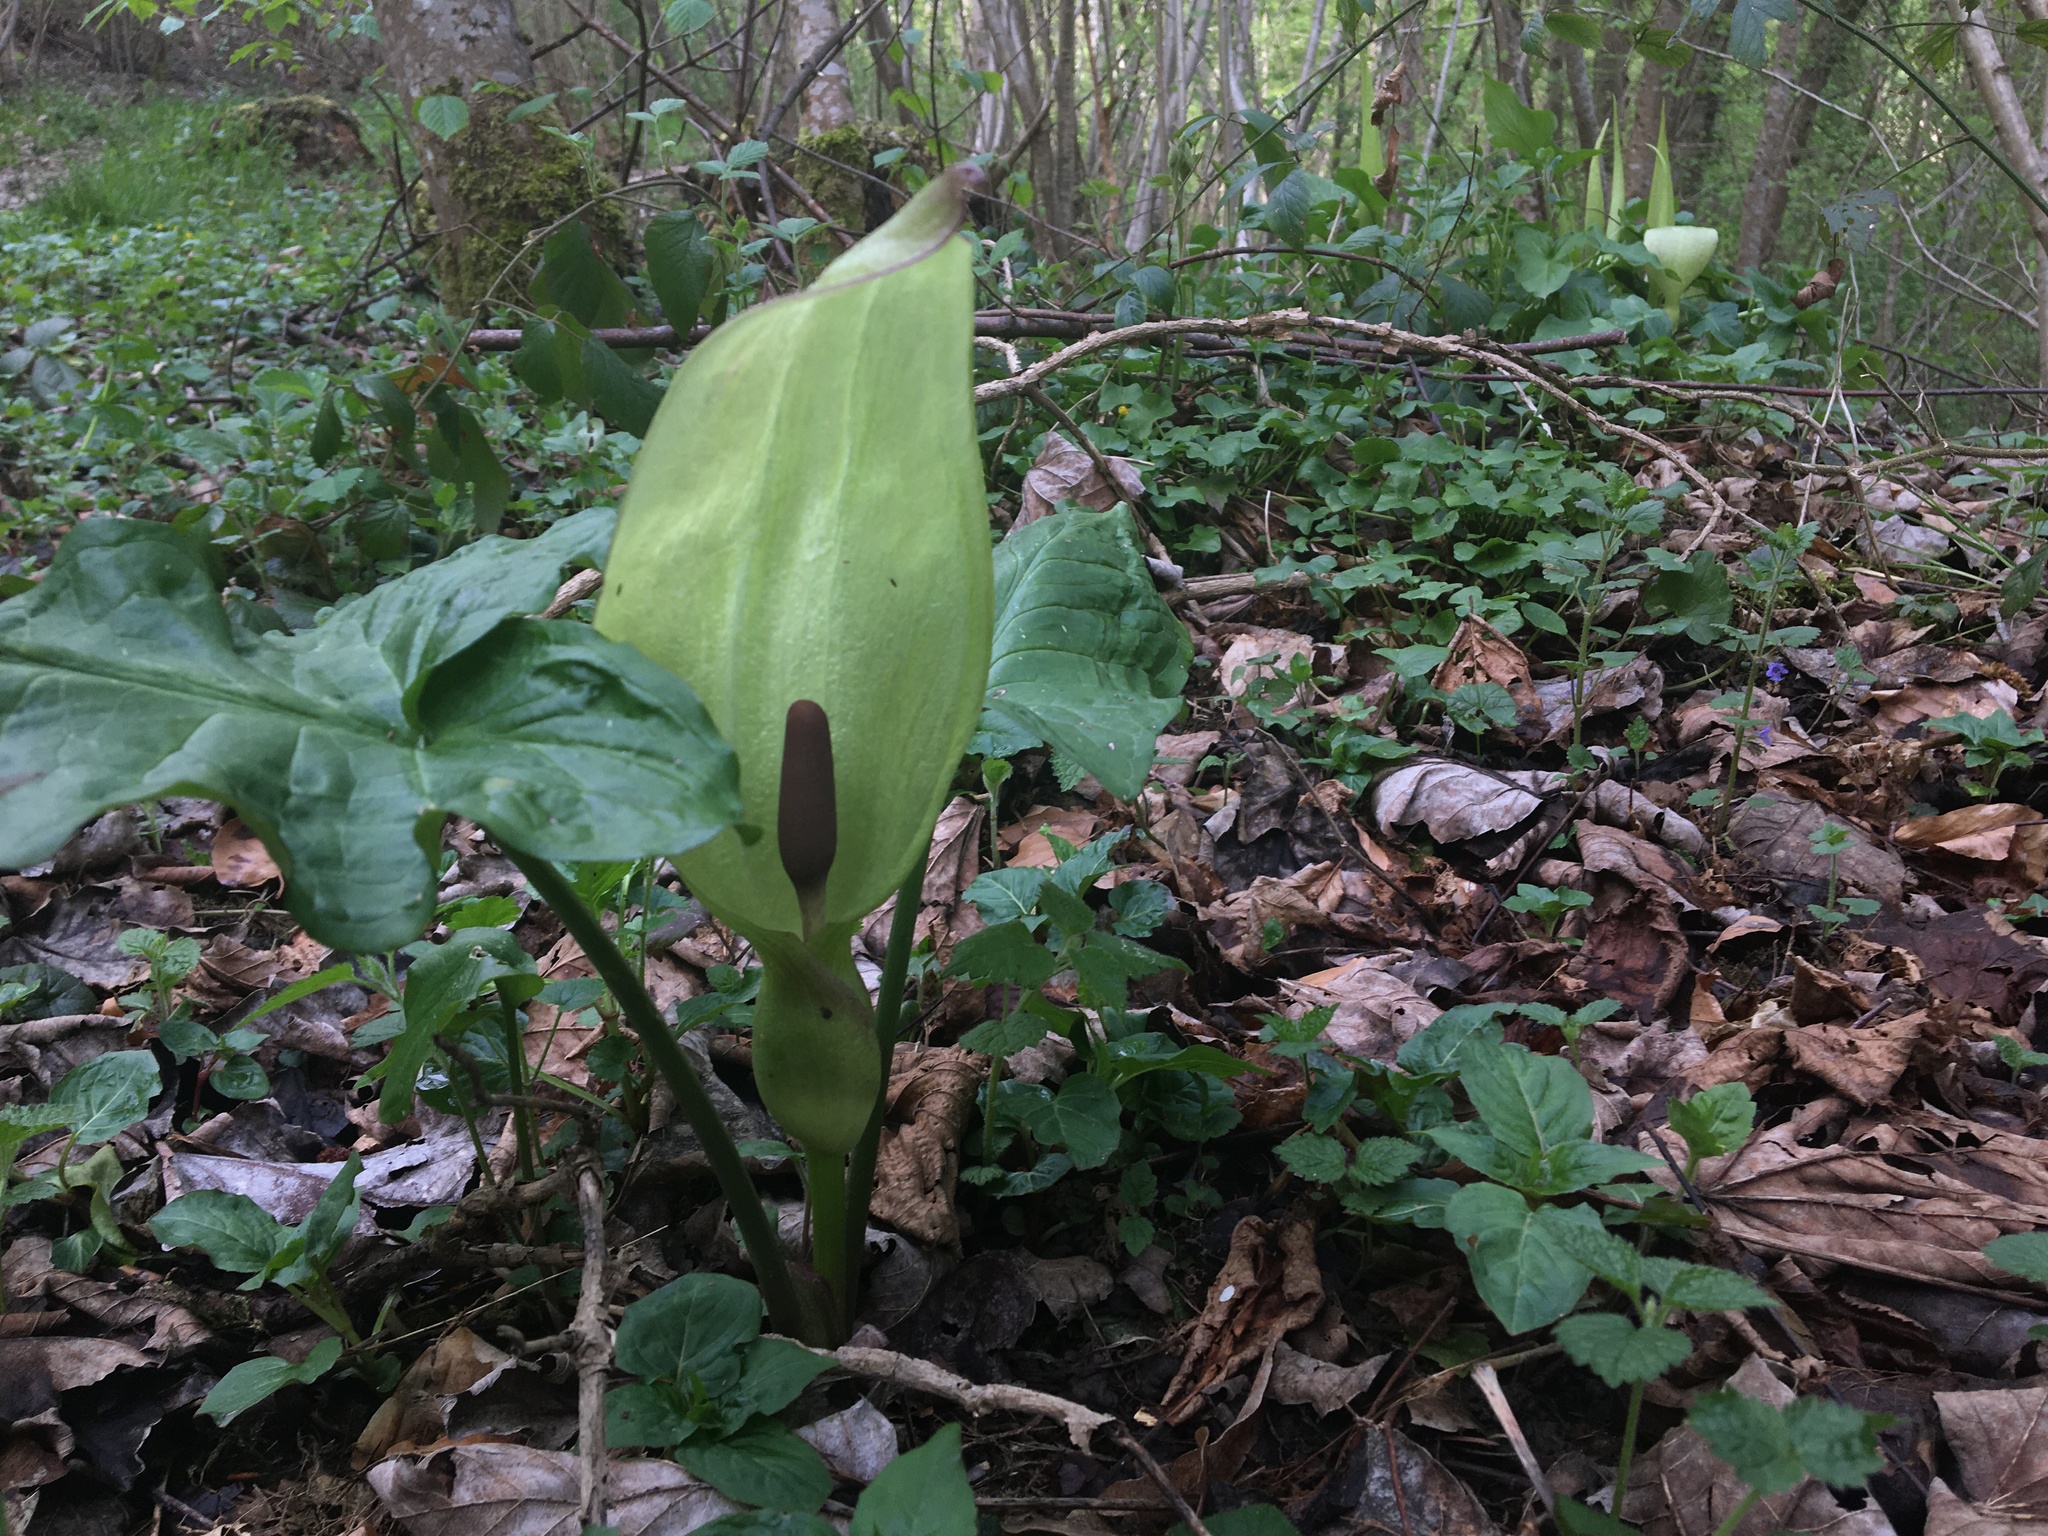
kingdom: Plantae
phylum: Tracheophyta
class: Liliopsida
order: Alismatales
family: Araceae
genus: Arum
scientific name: Arum maculatum
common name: Lords-and-ladies
